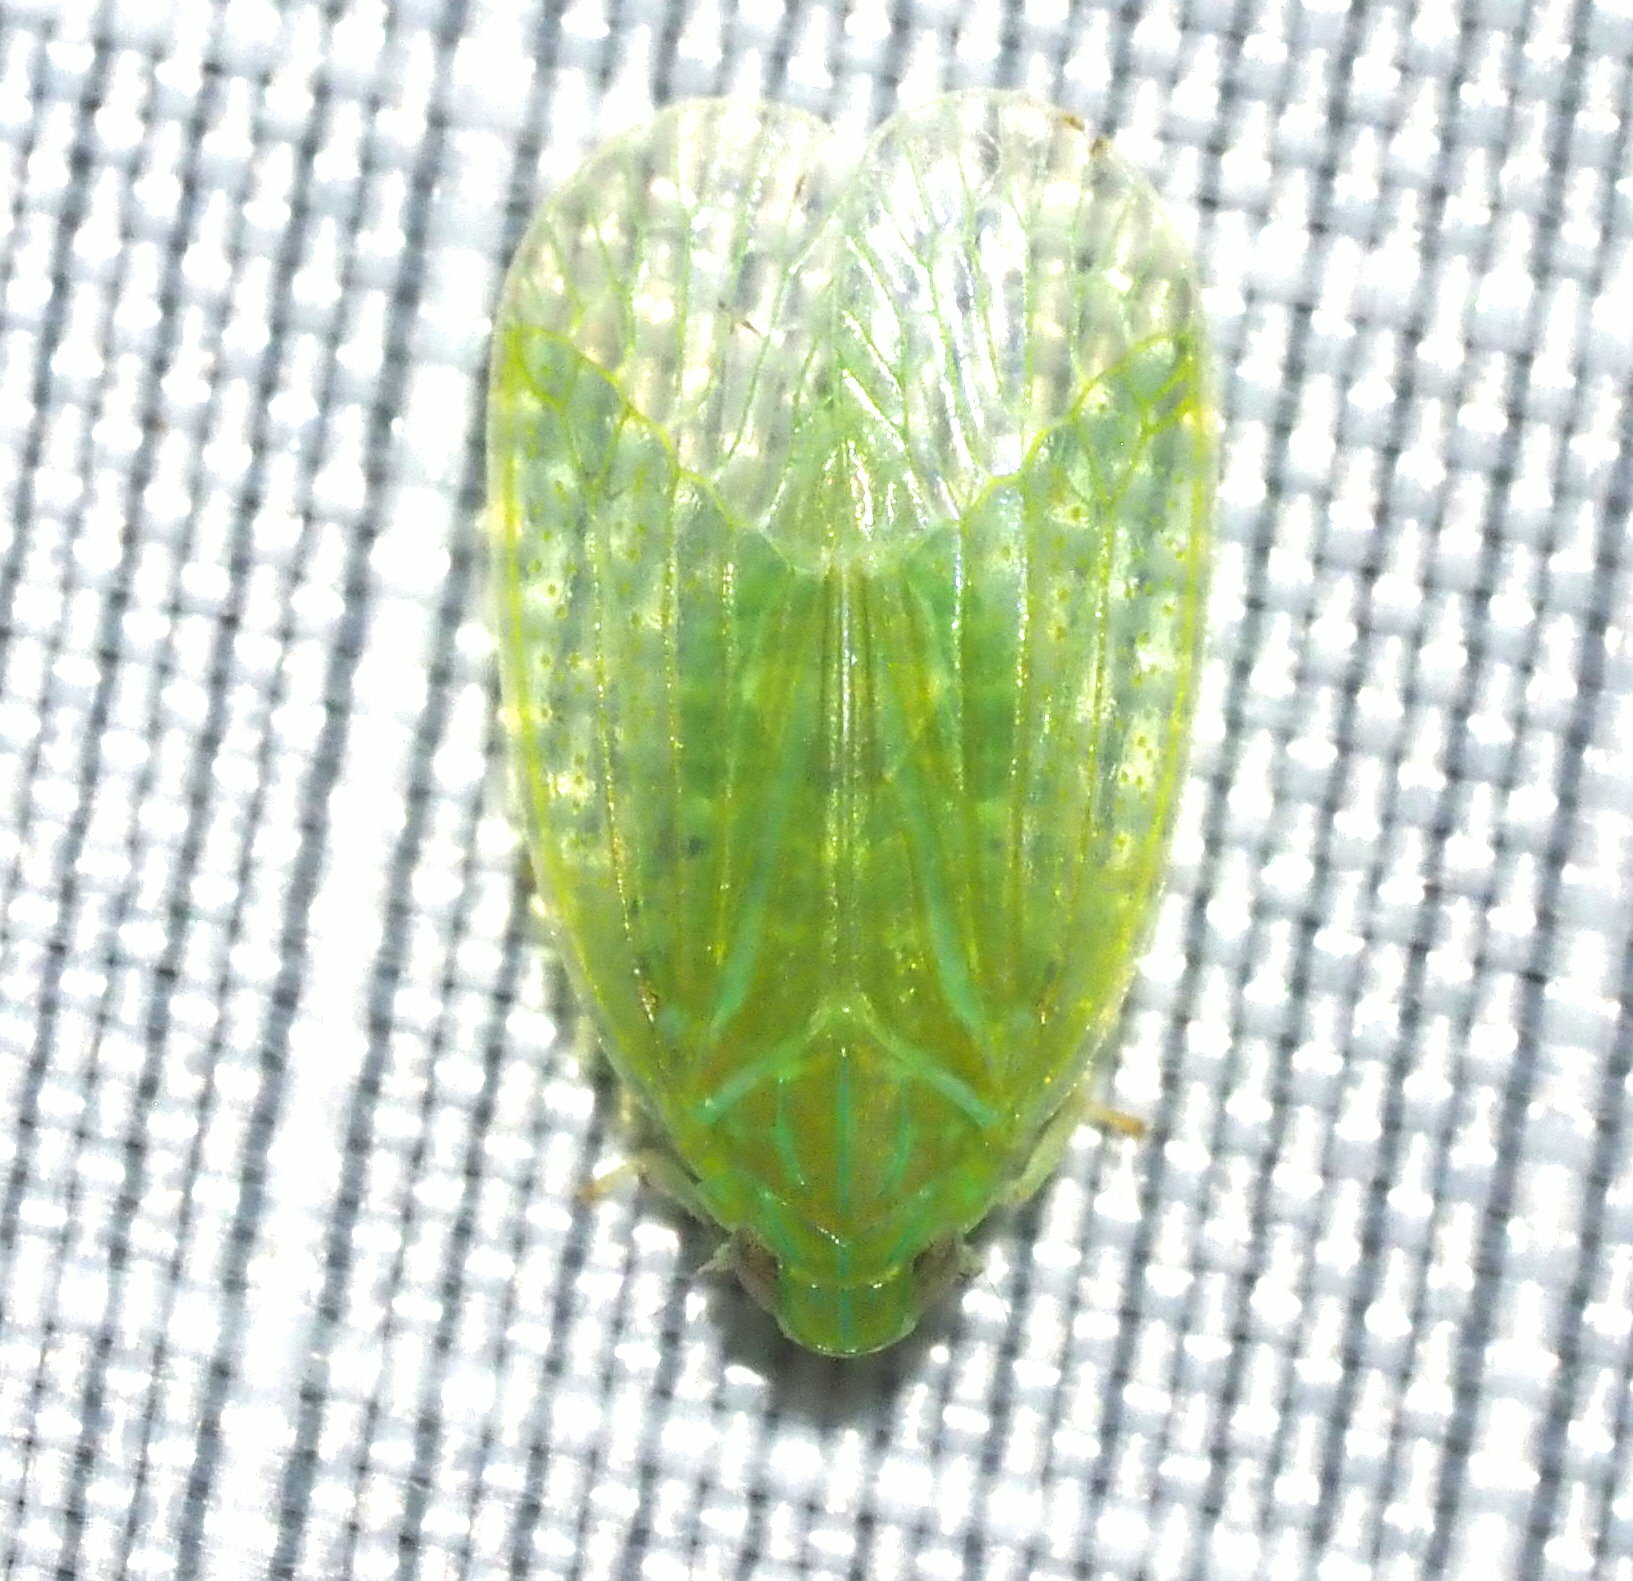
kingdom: Animalia
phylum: Arthropoda
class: Insecta
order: Hemiptera
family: Tropiduchidae
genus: Kallitaxila
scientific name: Kallitaxila granulata
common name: Planthopper
